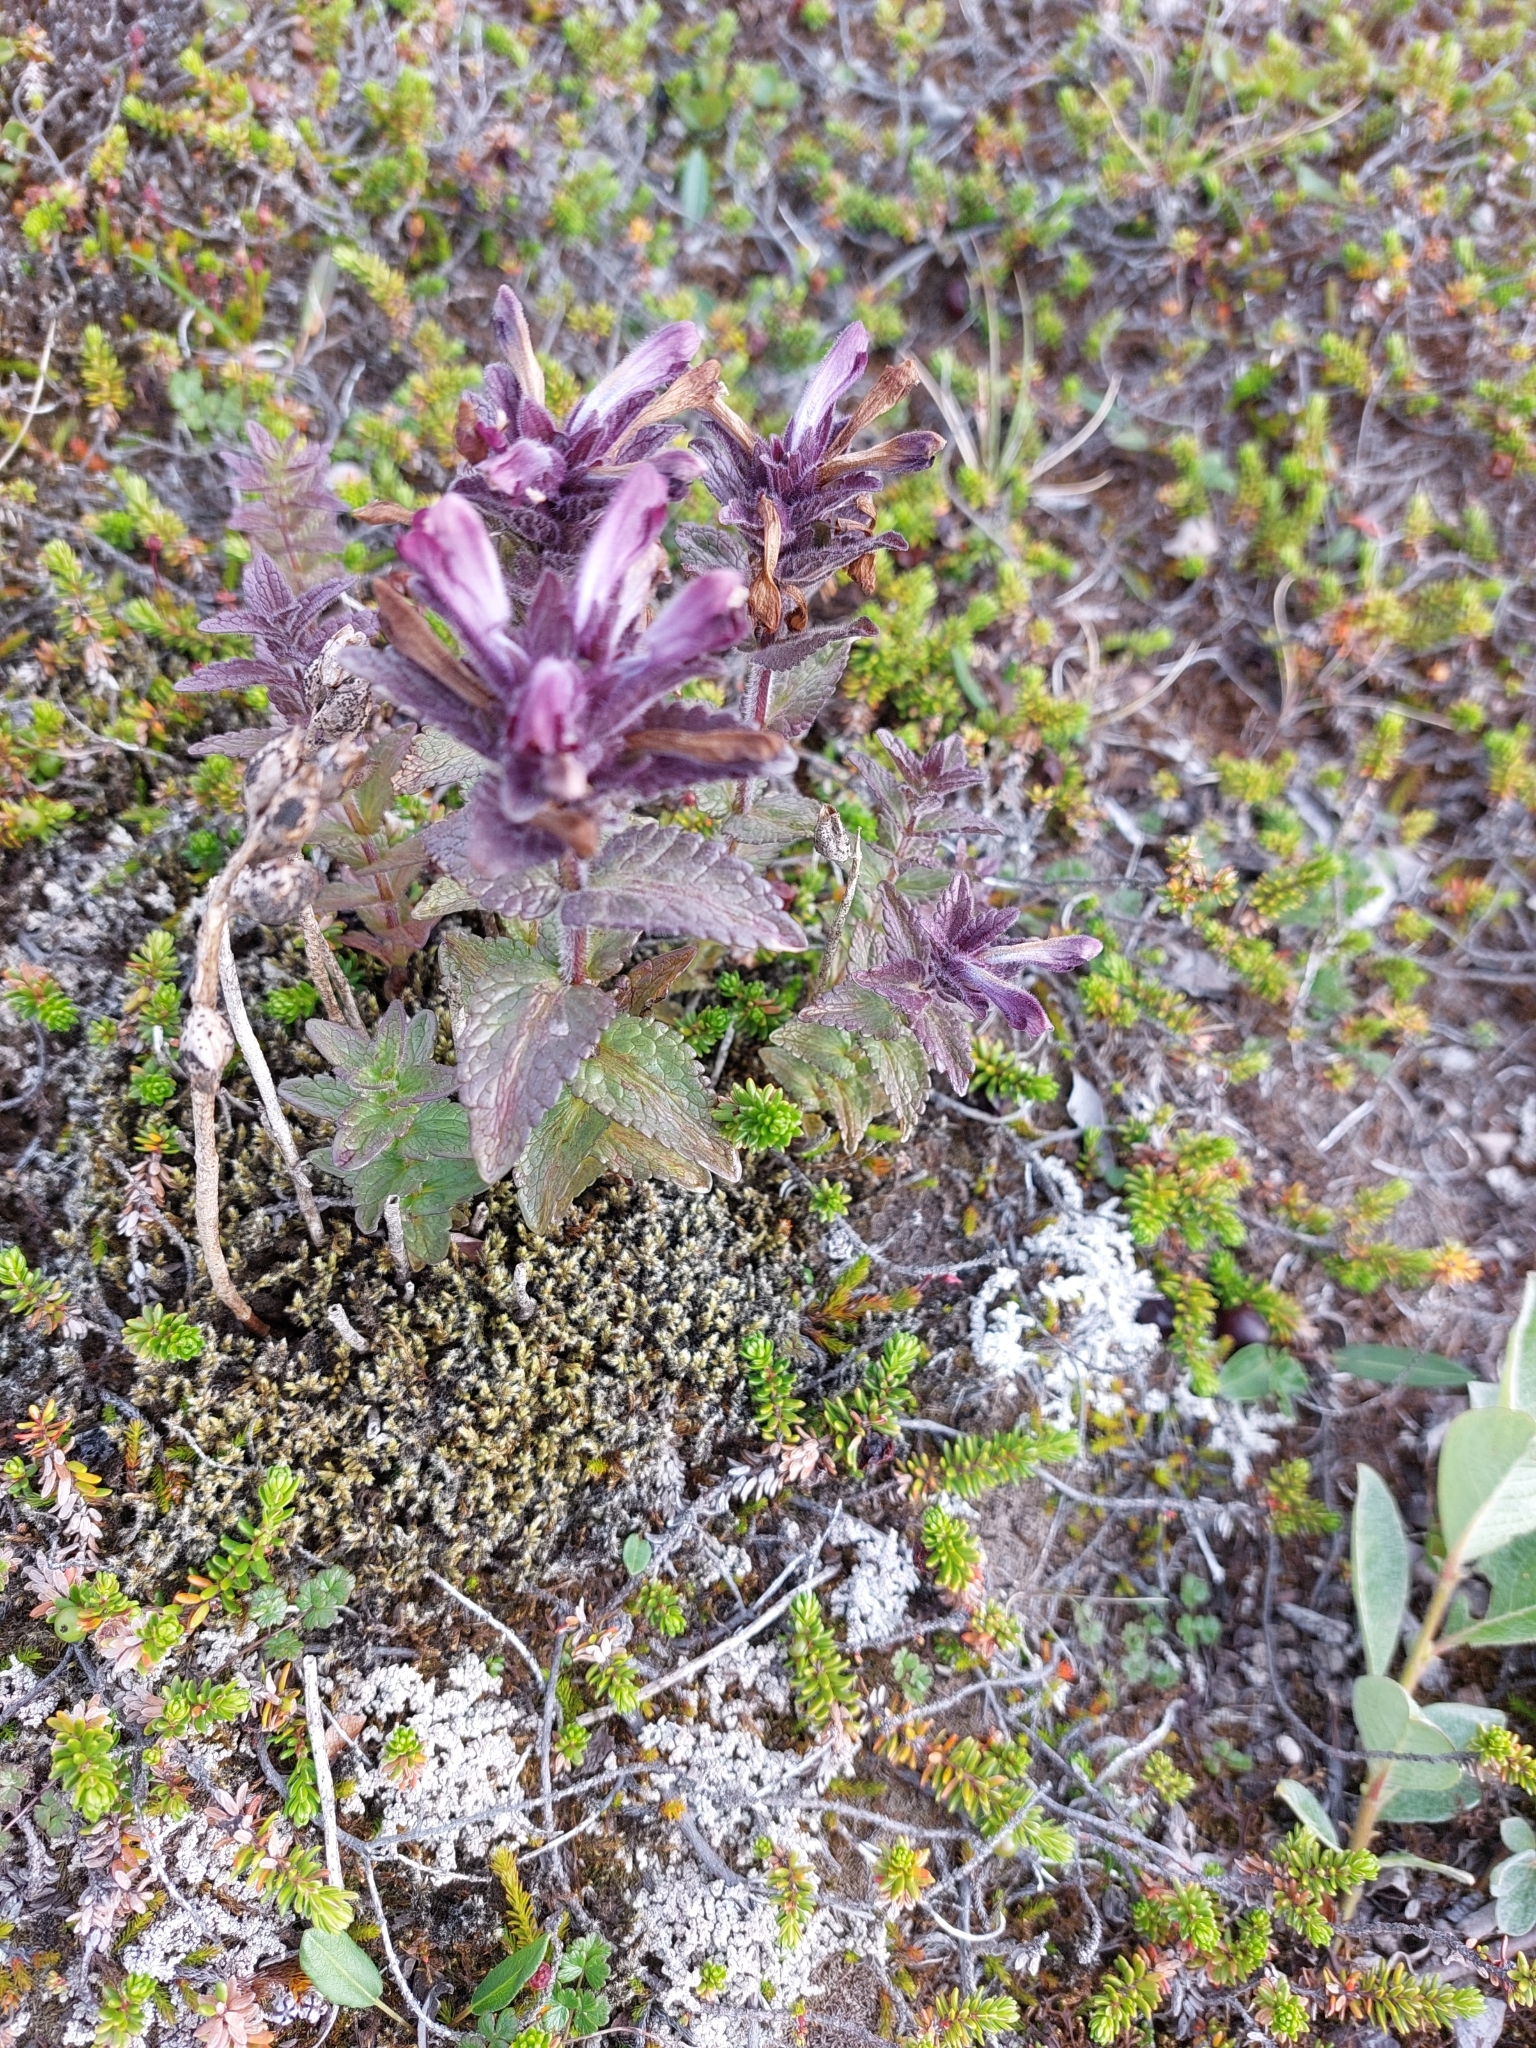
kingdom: Plantae
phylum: Tracheophyta
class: Magnoliopsida
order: Lamiales
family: Orobanchaceae
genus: Bartsia
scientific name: Bartsia alpina
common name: Alpine bartsia
